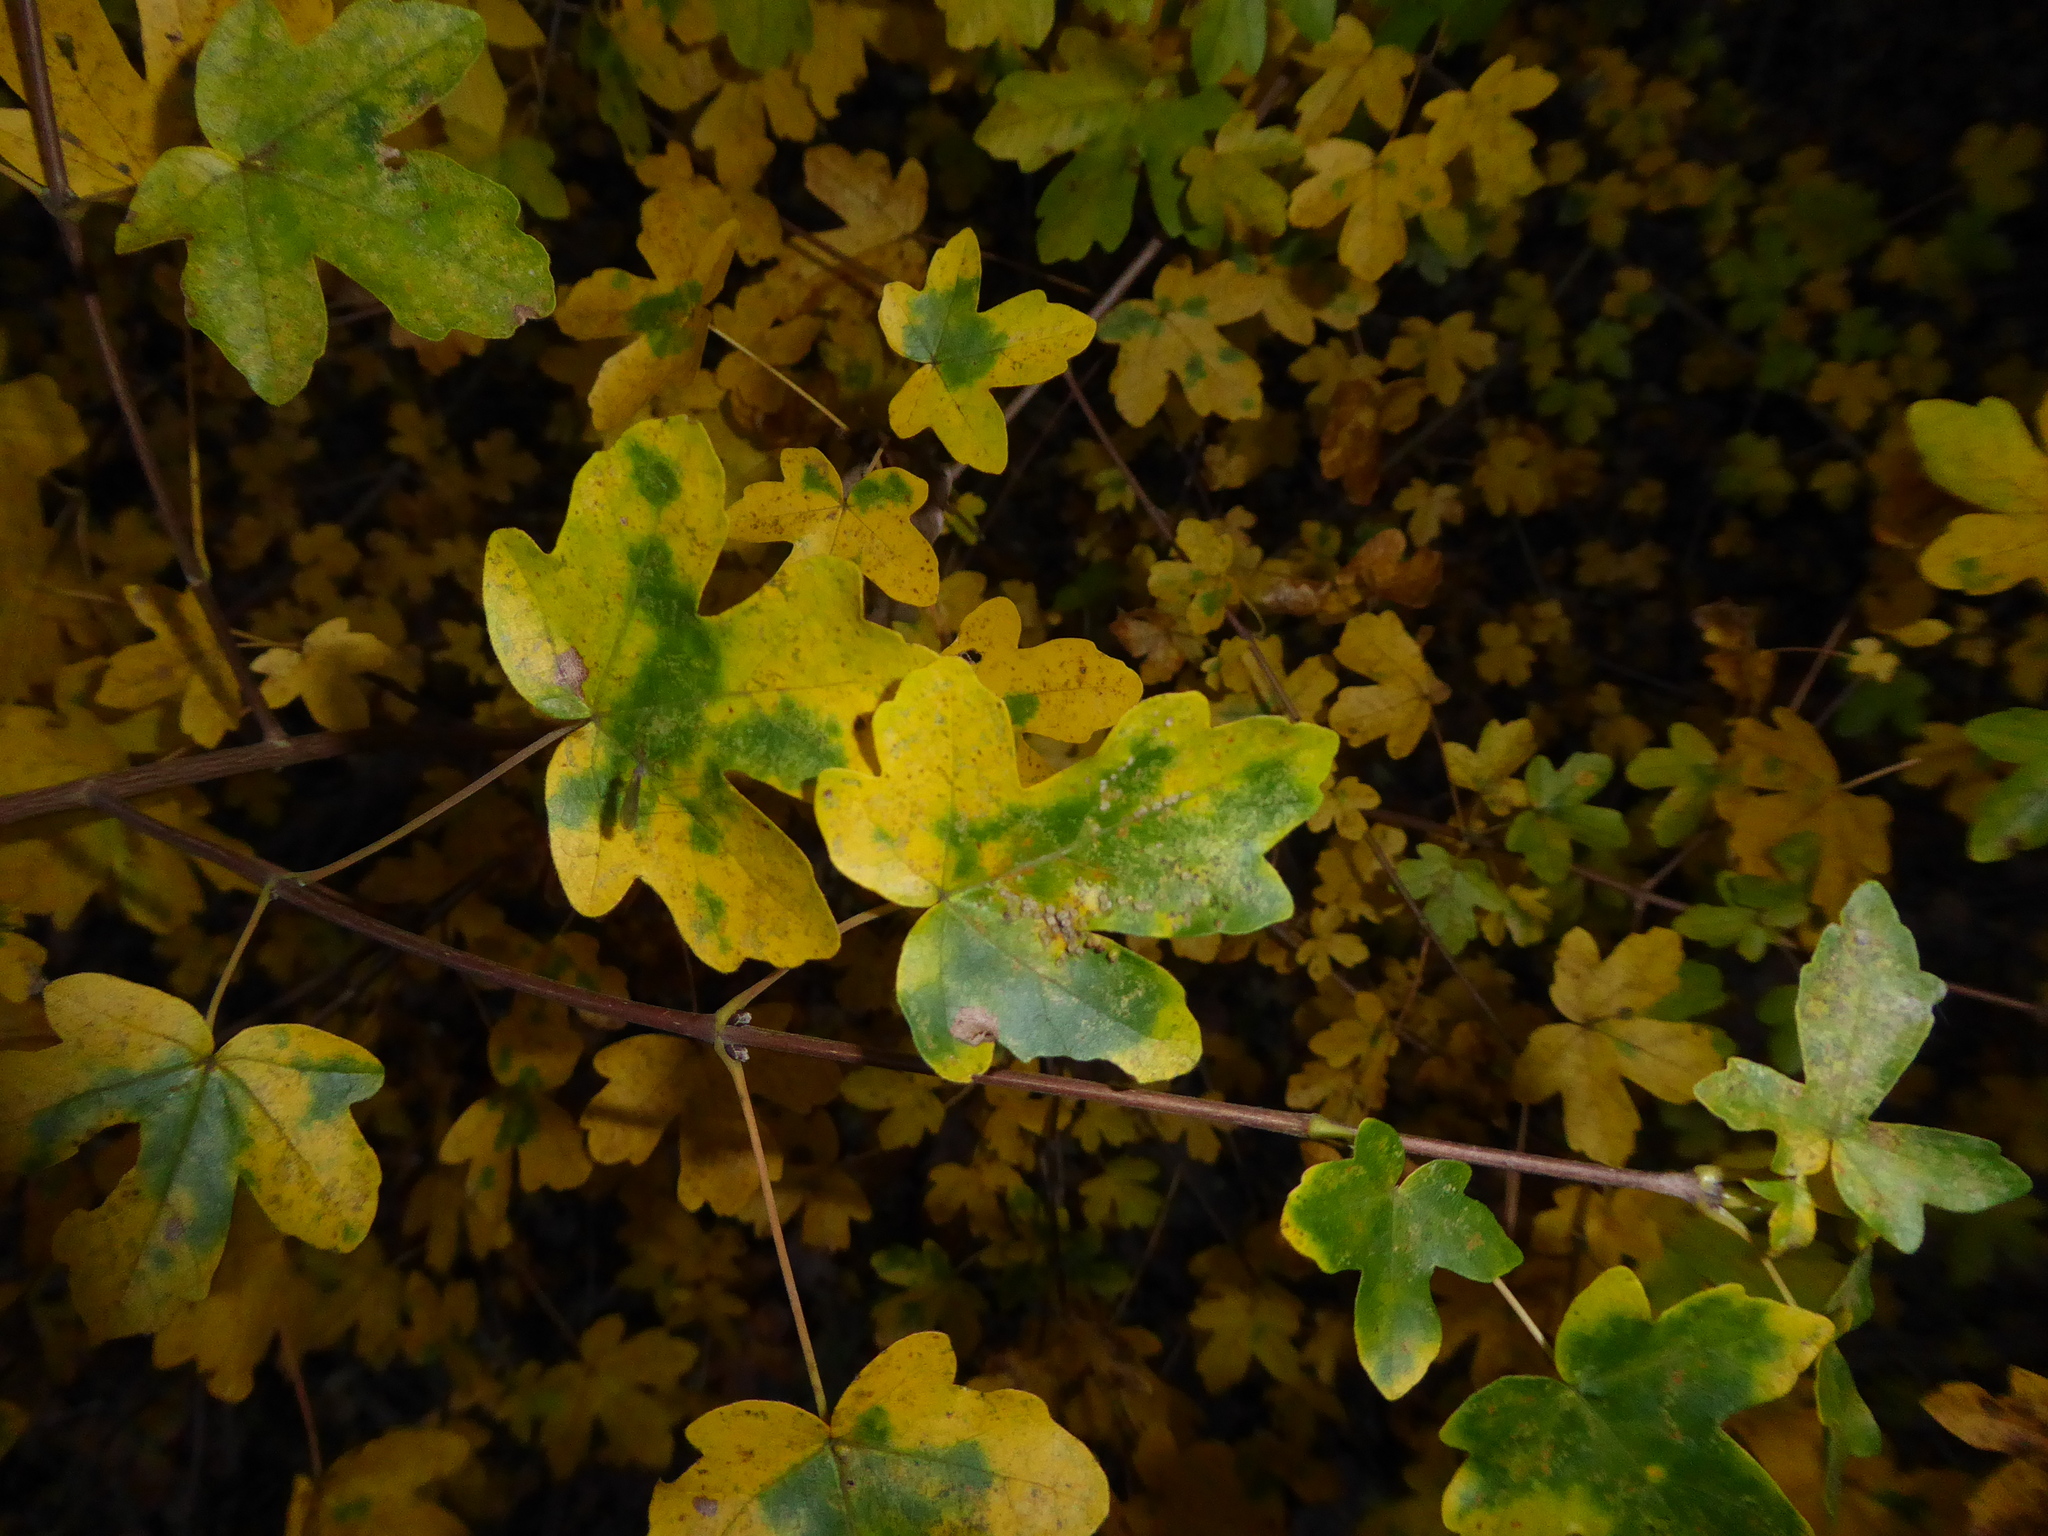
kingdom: Plantae
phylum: Tracheophyta
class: Magnoliopsida
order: Sapindales
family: Sapindaceae
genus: Acer
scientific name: Acer campestre
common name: Field maple
